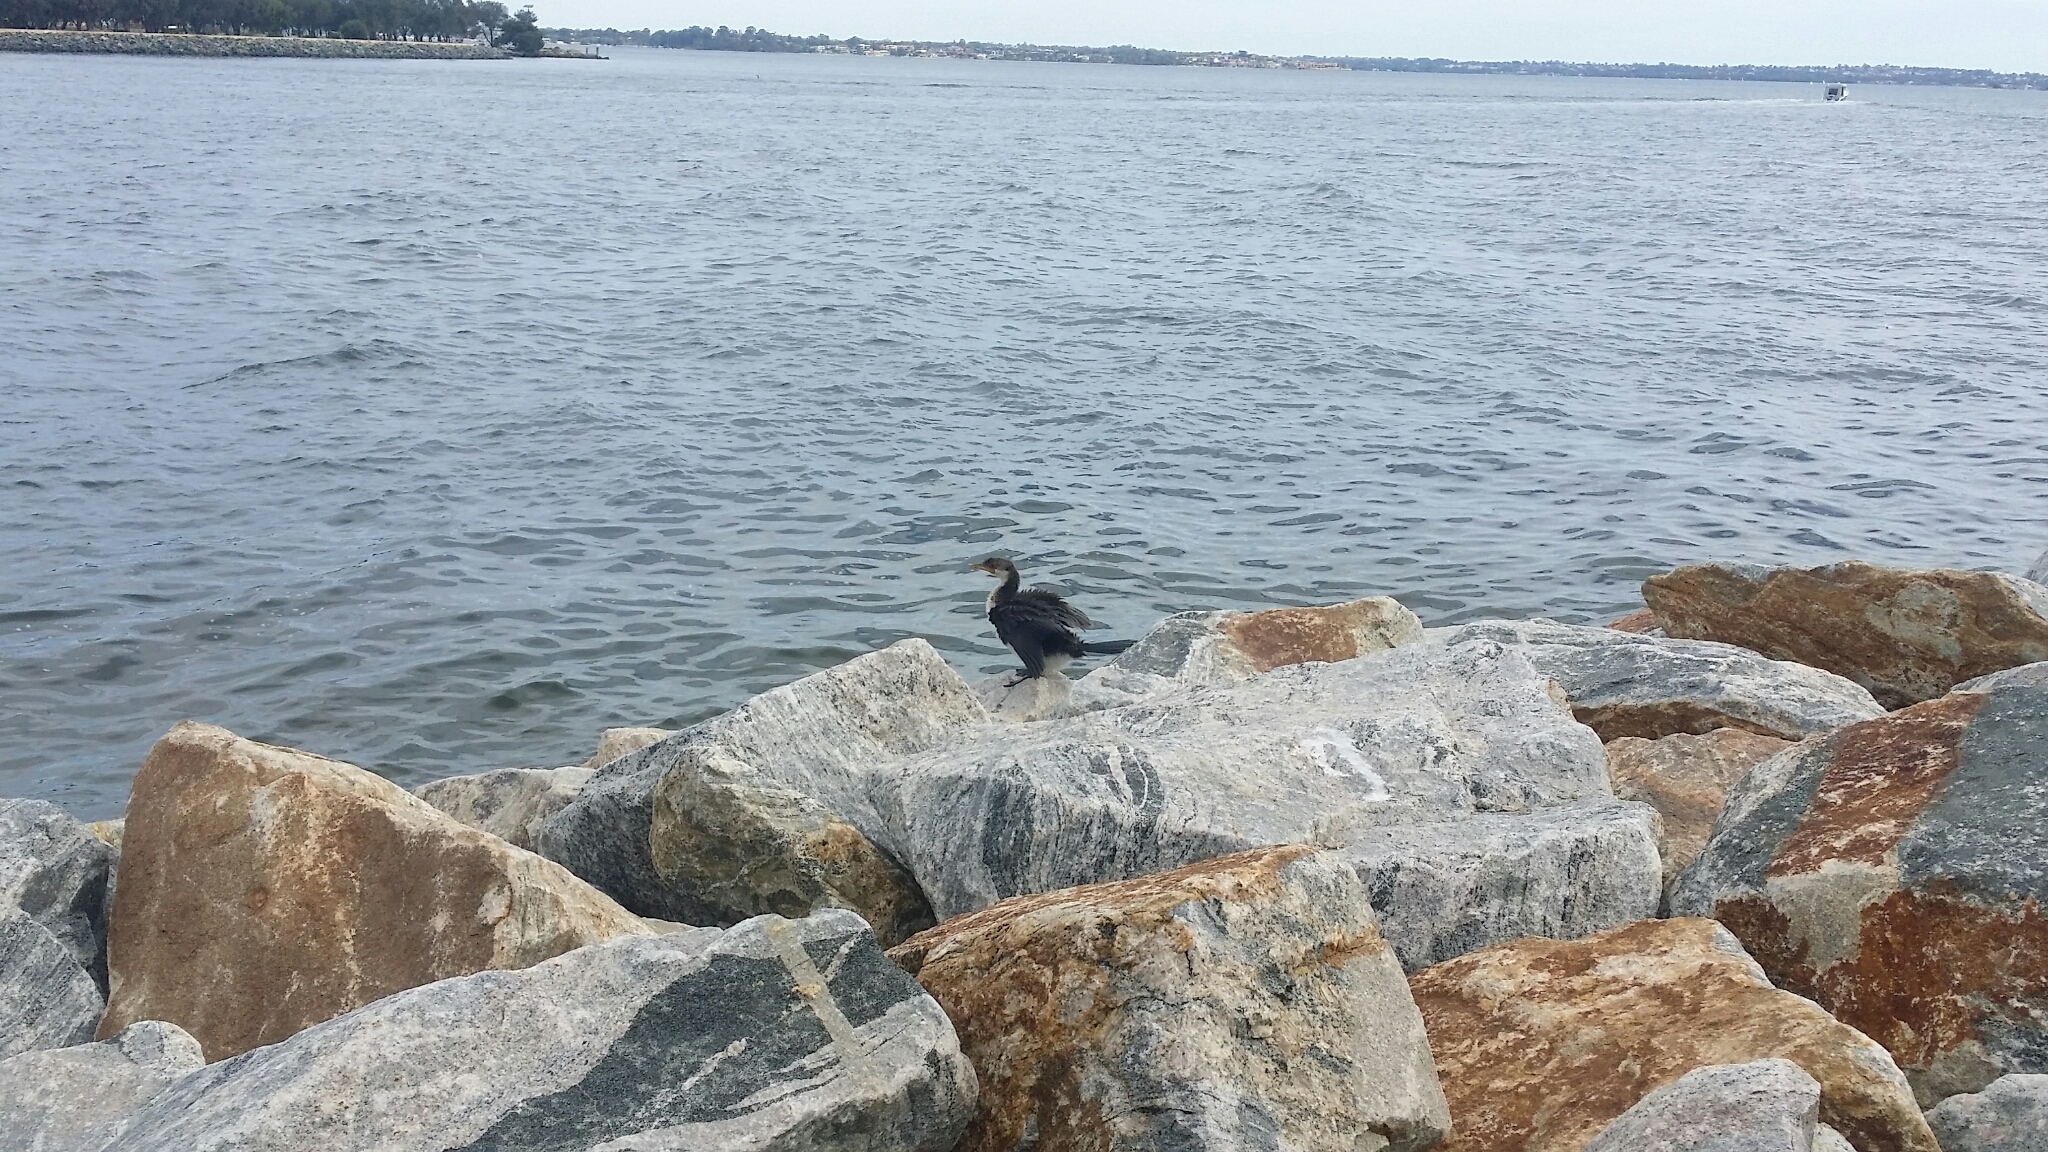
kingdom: Animalia
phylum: Chordata
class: Aves
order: Suliformes
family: Phalacrocoracidae
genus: Microcarbo
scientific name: Microcarbo melanoleucos
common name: Little pied cormorant
